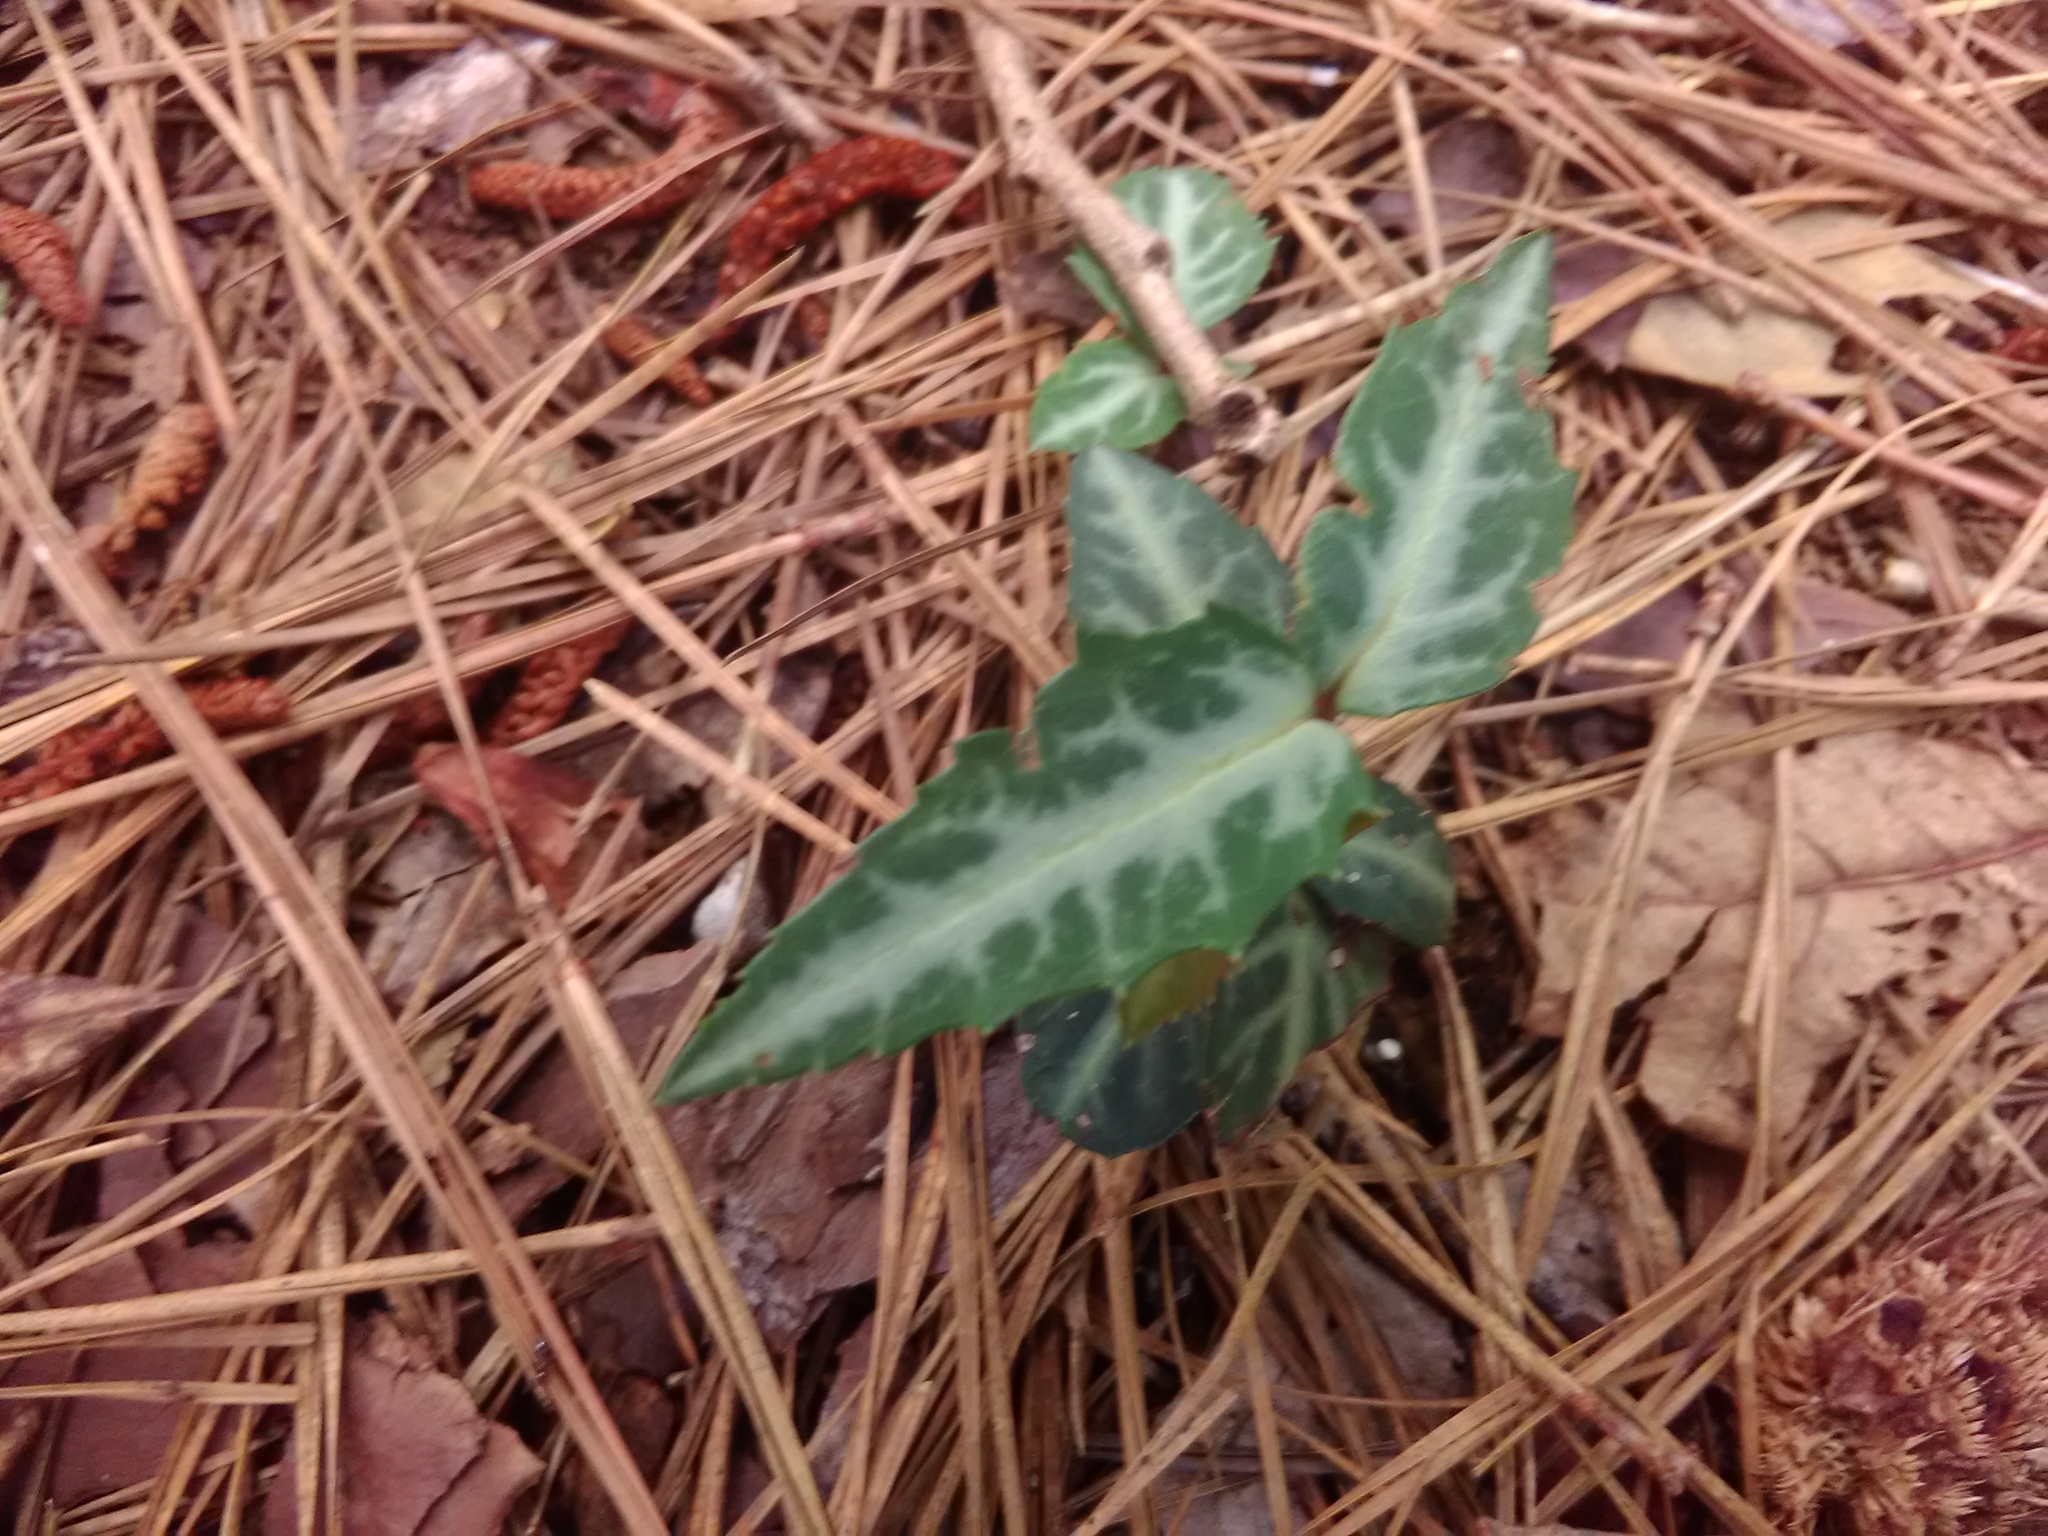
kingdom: Plantae
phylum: Tracheophyta
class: Magnoliopsida
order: Ericales
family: Ericaceae
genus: Chimaphila
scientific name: Chimaphila maculata
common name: Spotted pipsissewa
